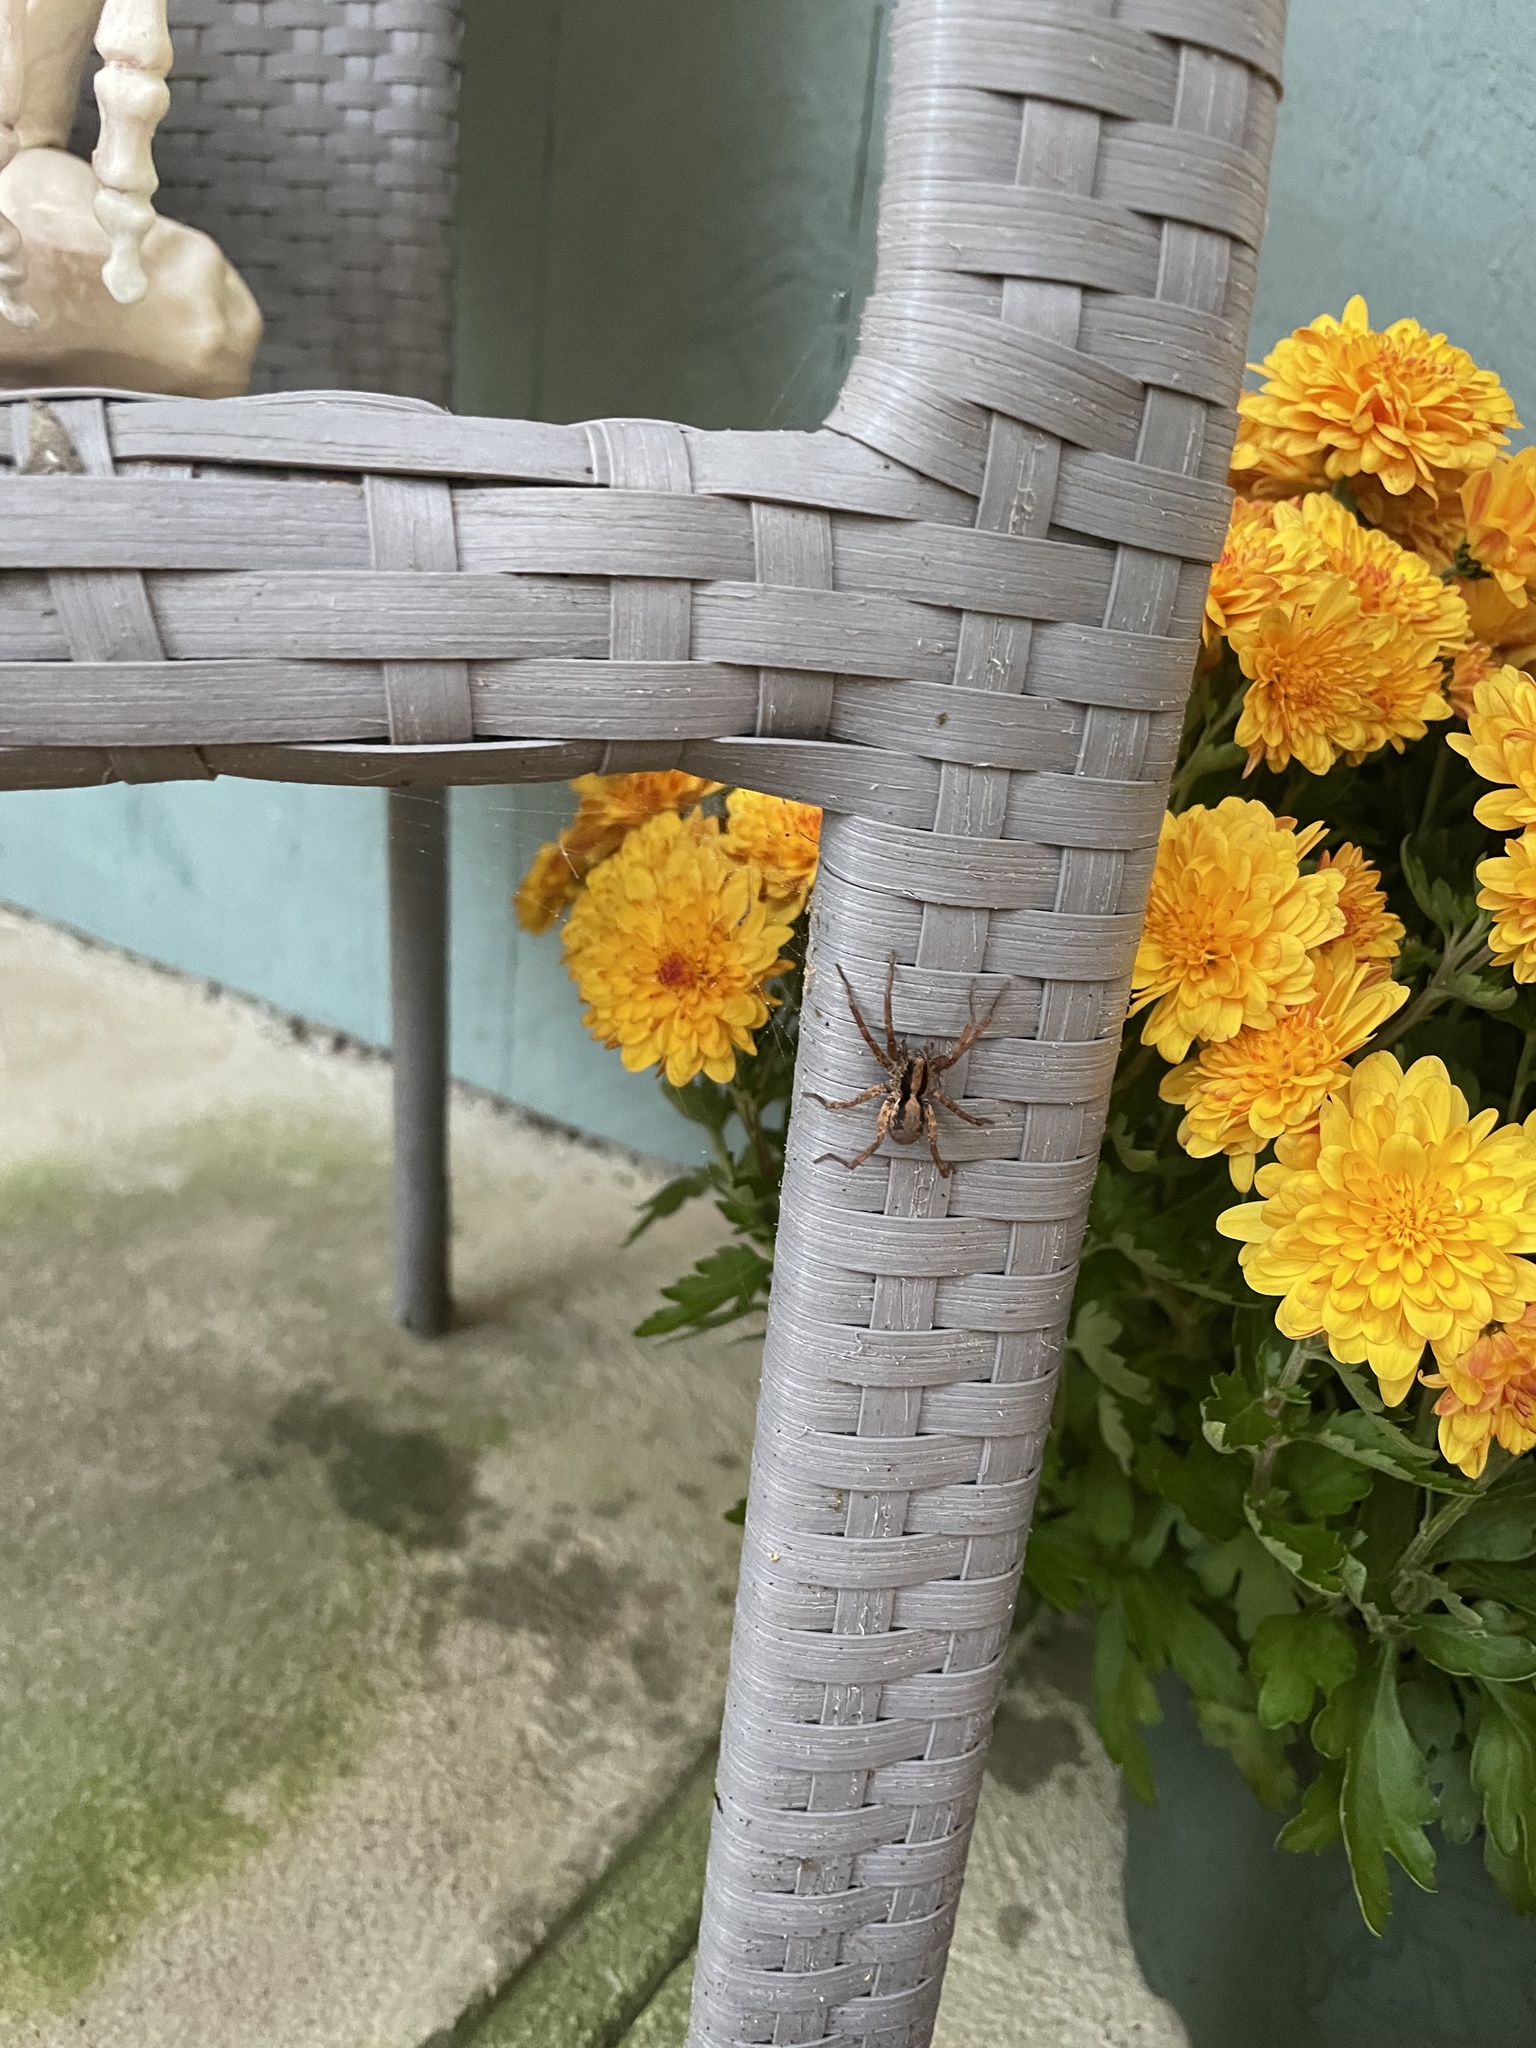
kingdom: Animalia
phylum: Arthropoda
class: Arachnida
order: Araneae
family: Lycosidae
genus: Schizocosa
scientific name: Schizocosa avida
